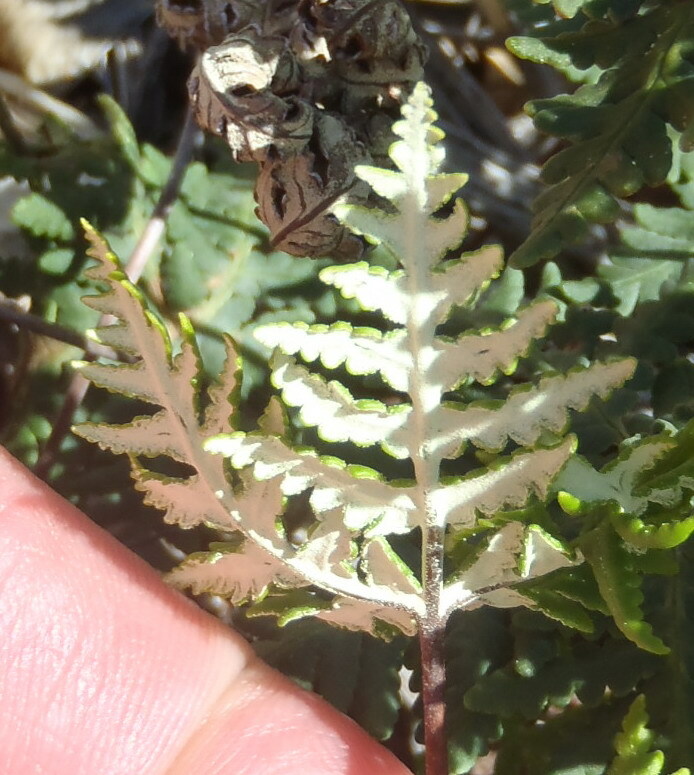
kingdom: Plantae
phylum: Tracheophyta
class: Polypodiopsida
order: Polypodiales
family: Pteridaceae
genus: Notholaena
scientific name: Notholaena standleyi
